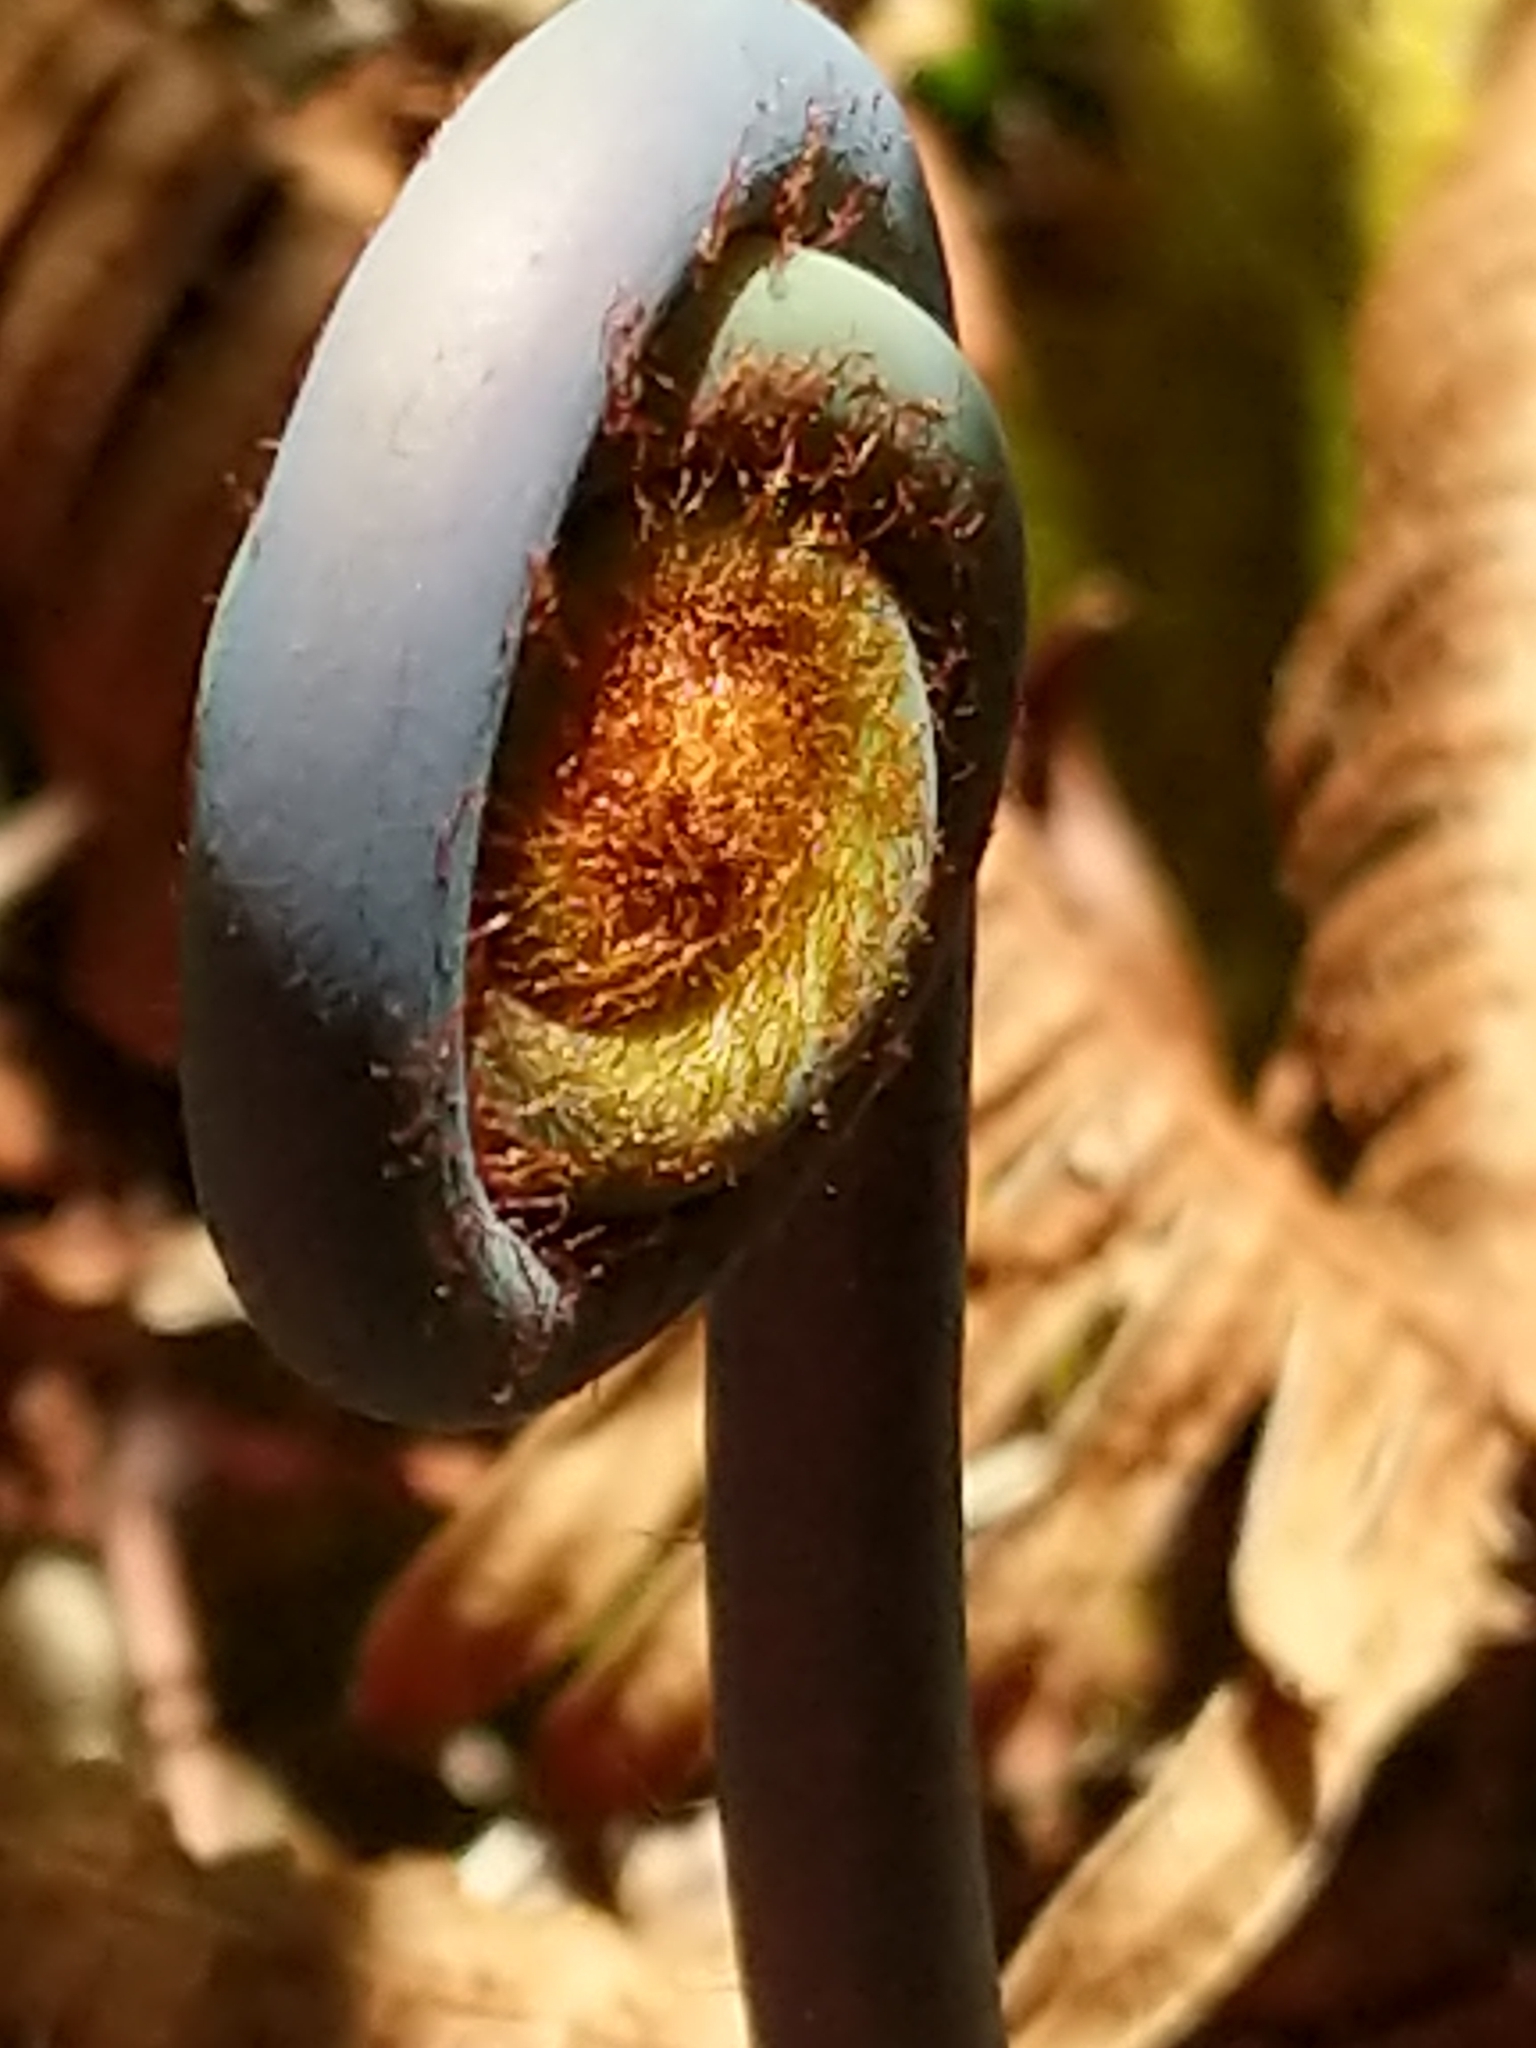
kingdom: Plantae
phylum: Tracheophyta
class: Polypodiopsida
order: Gleicheniales
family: Gleicheniaceae
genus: Dicranopteris
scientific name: Dicranopteris linearis
